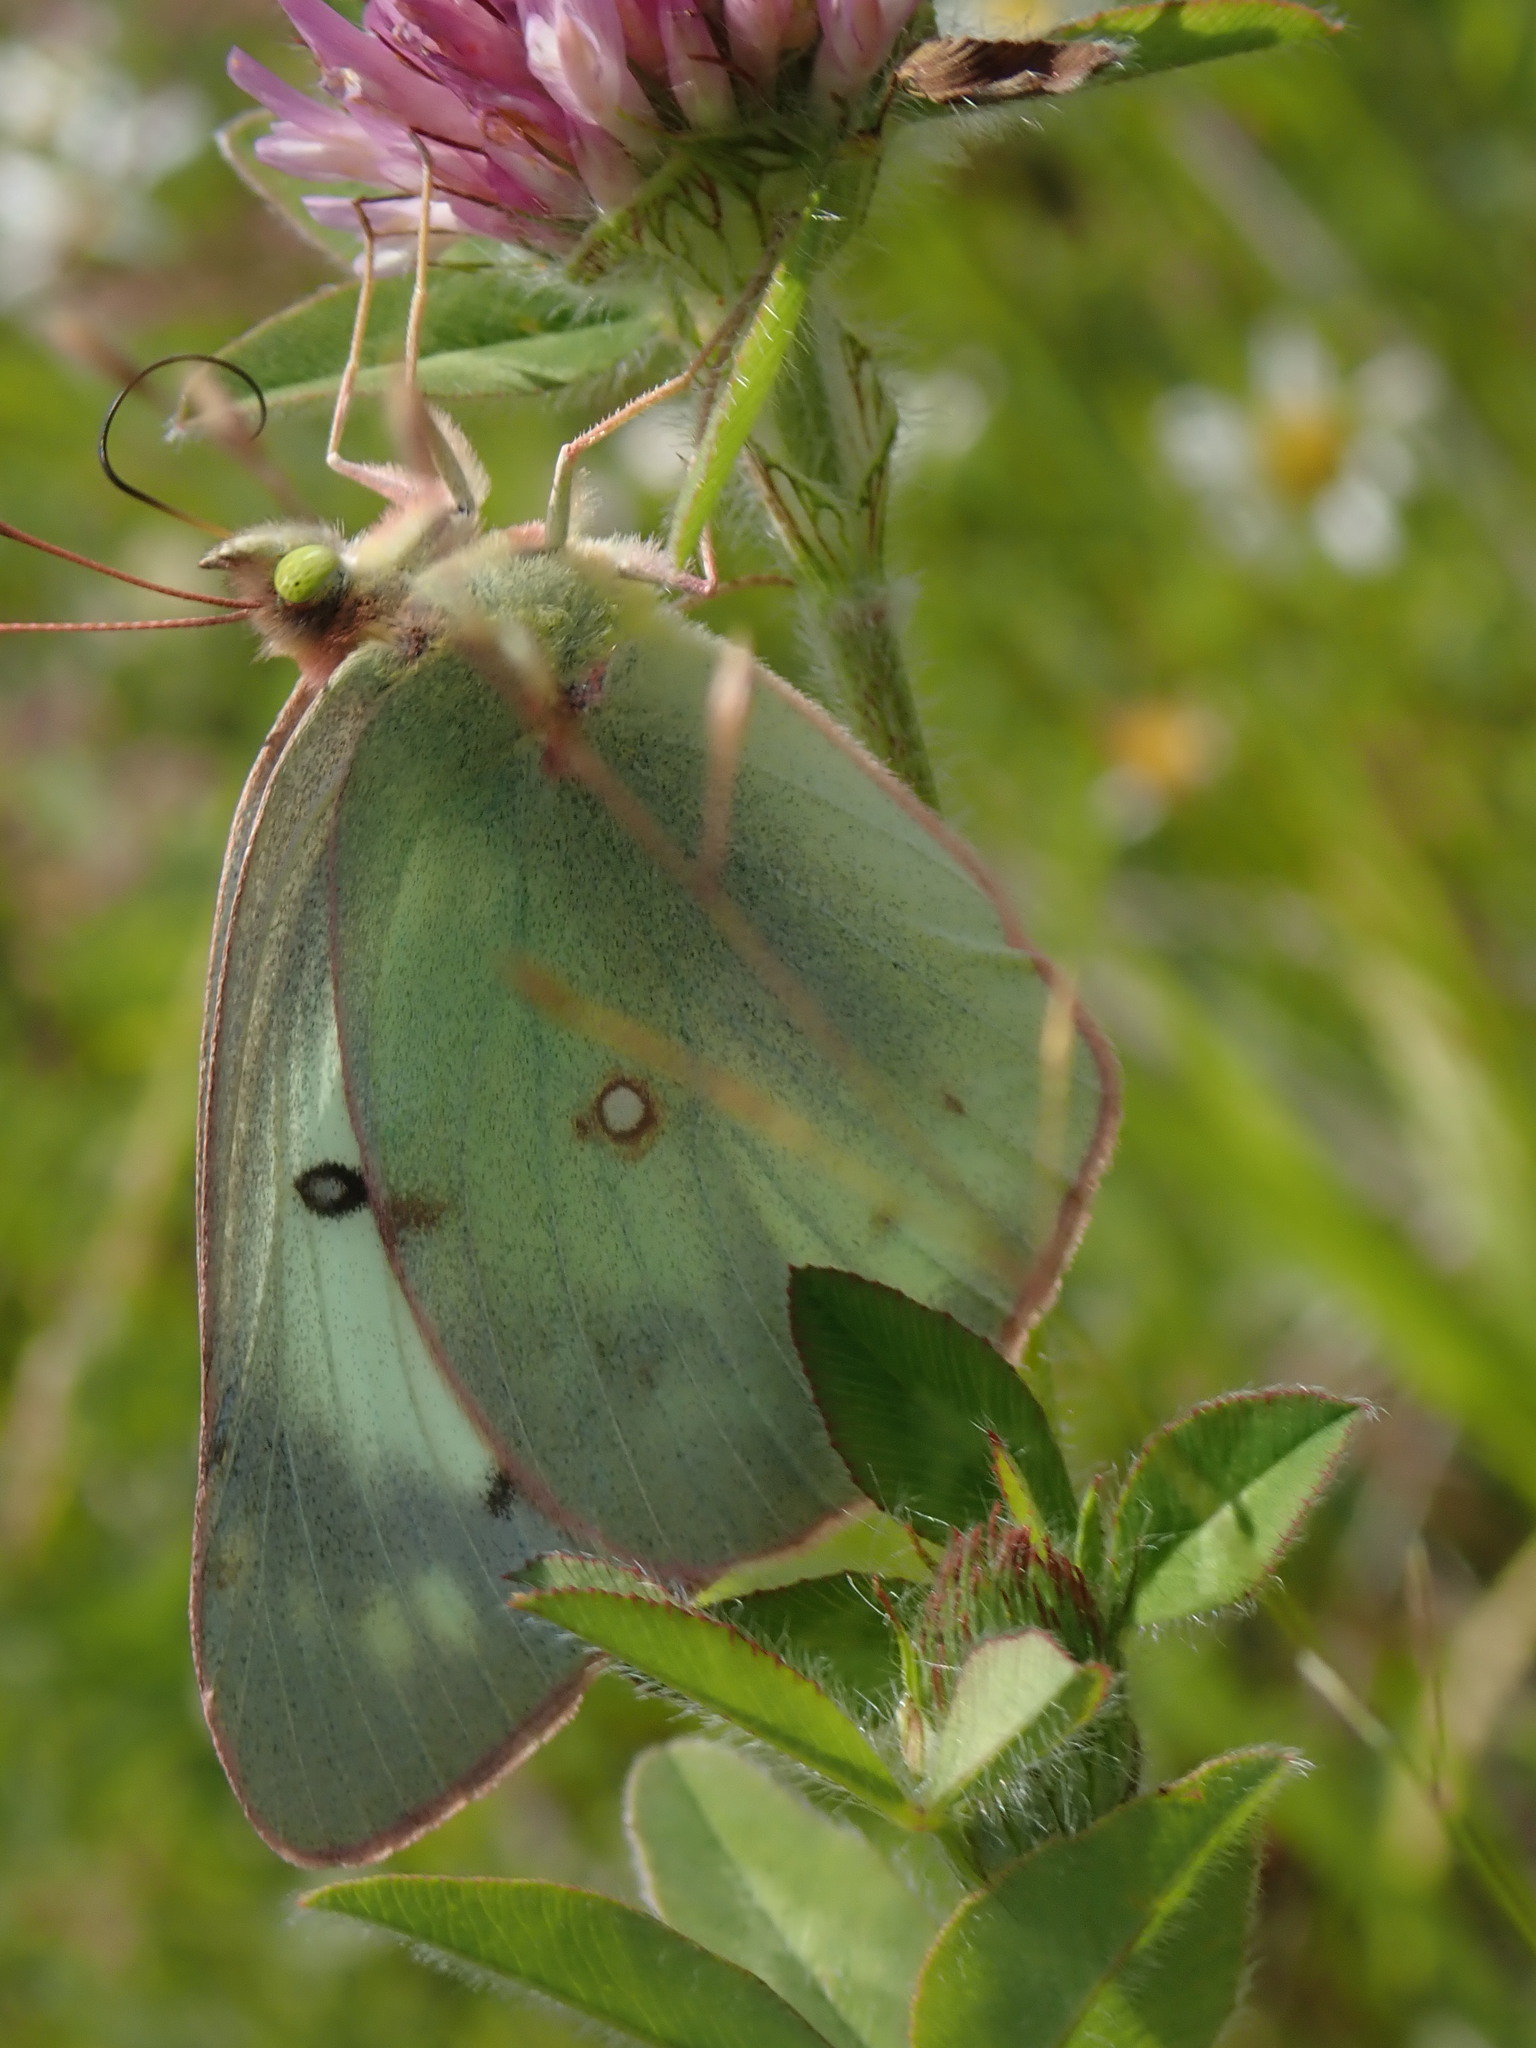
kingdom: Animalia
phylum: Arthropoda
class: Insecta
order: Lepidoptera
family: Pieridae
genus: Colias
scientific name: Colias philodice
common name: Clouded sulphur
